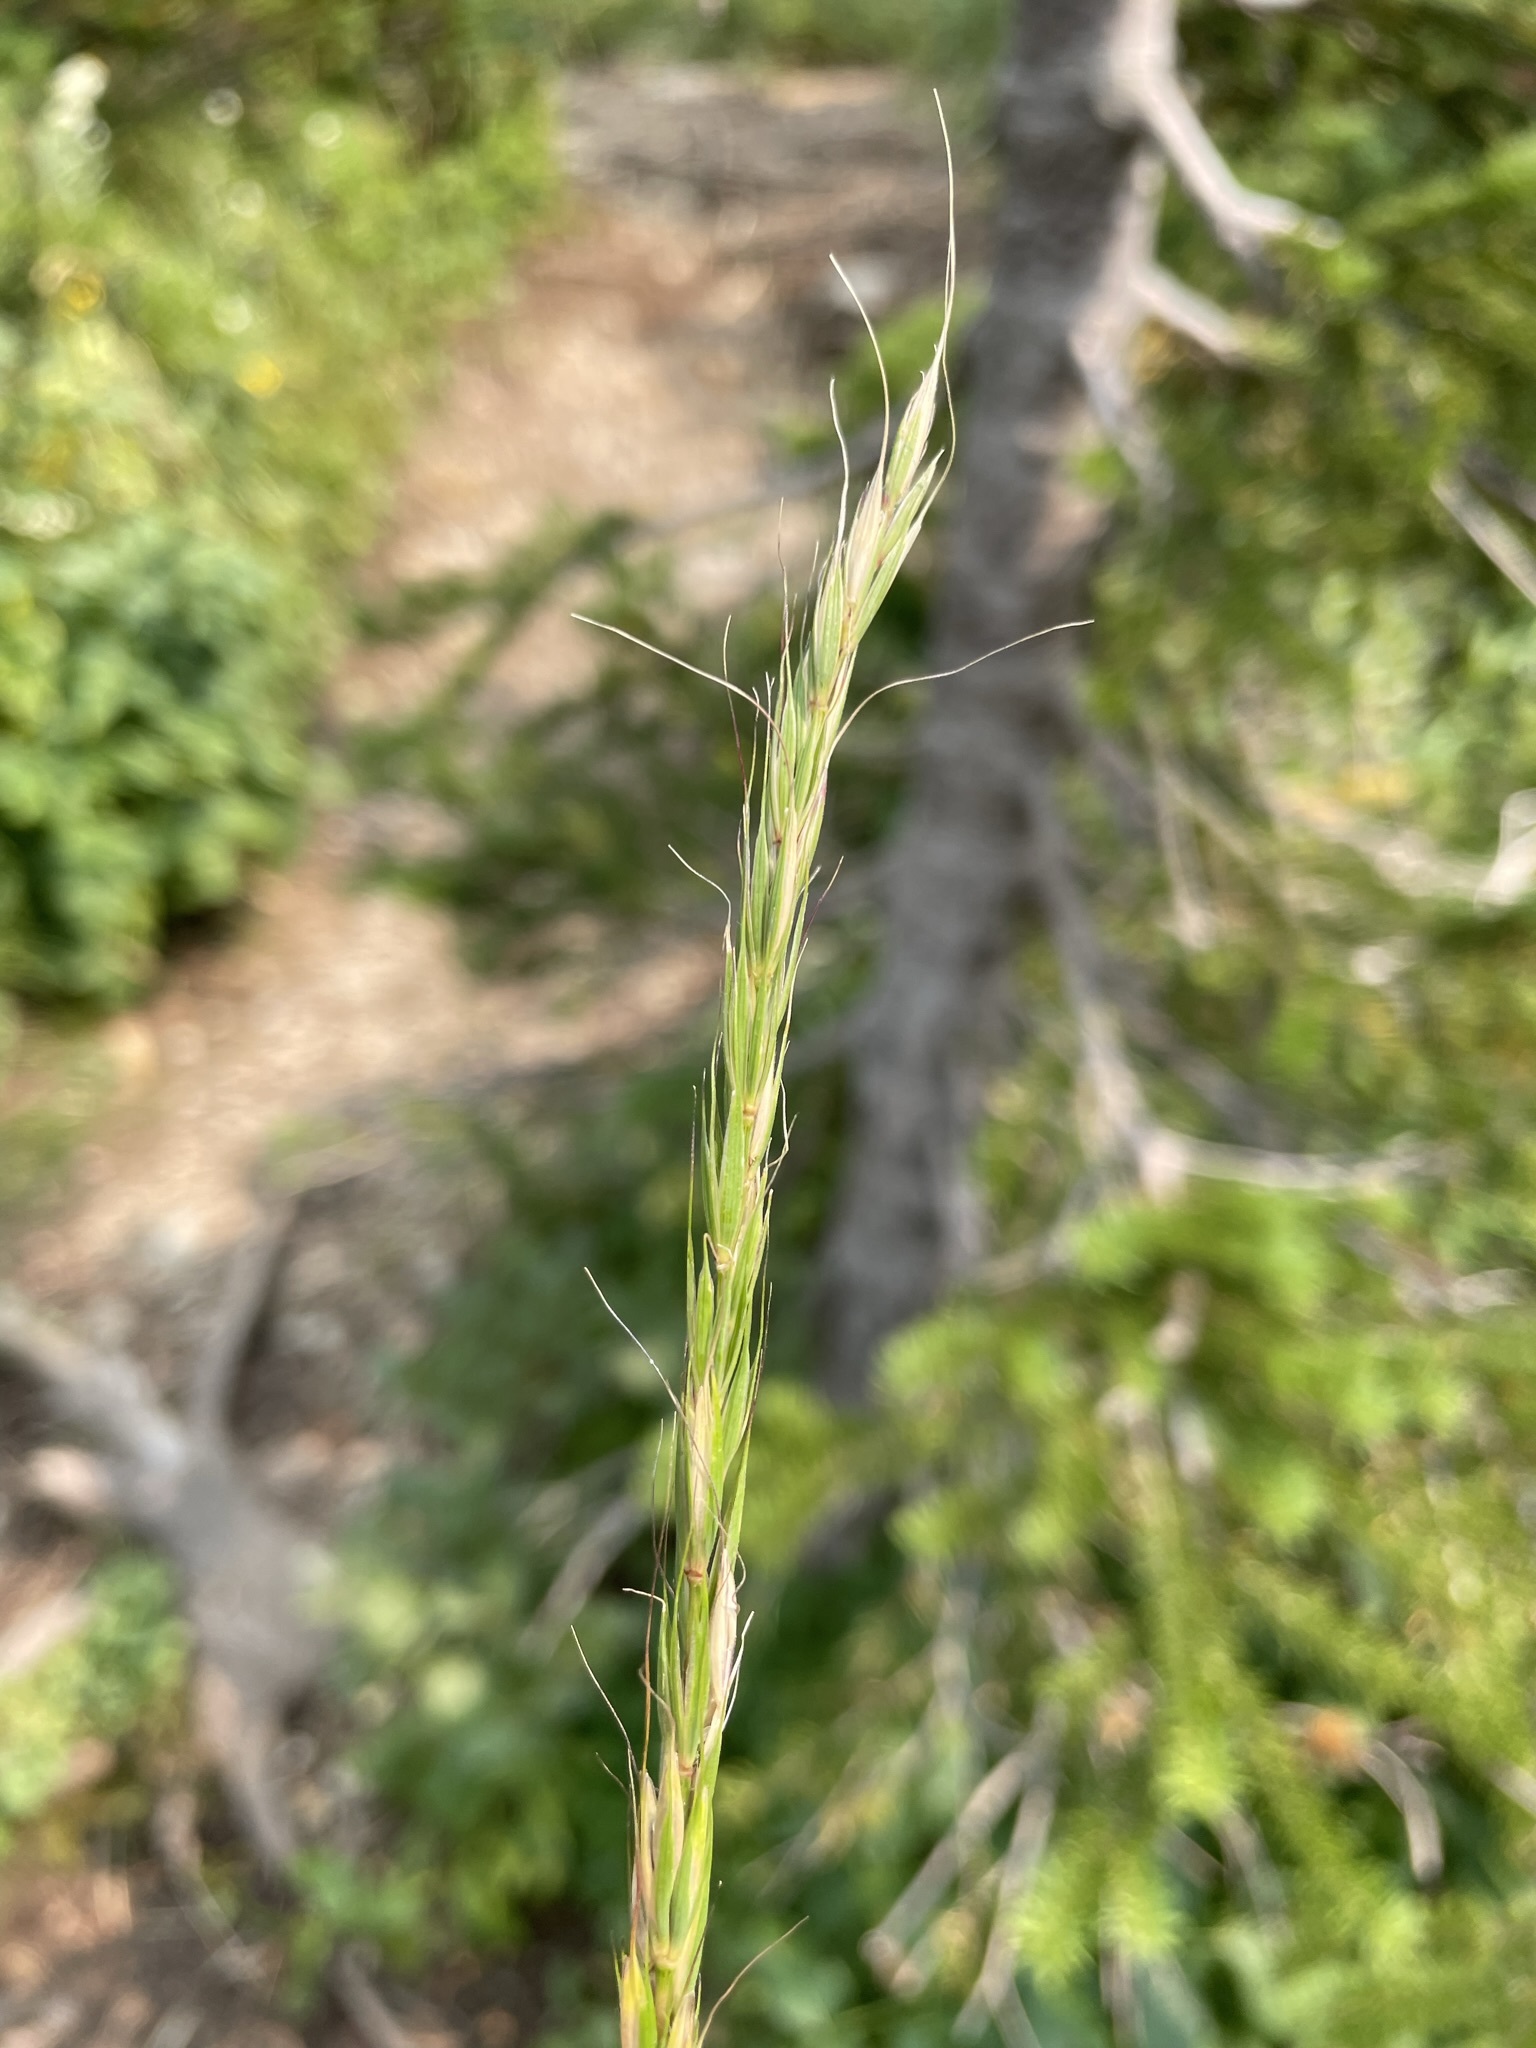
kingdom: Plantae
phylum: Tracheophyta
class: Liliopsida
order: Poales
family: Poaceae
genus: Elymus
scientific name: Elymus glaucus
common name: Blue wild rye
